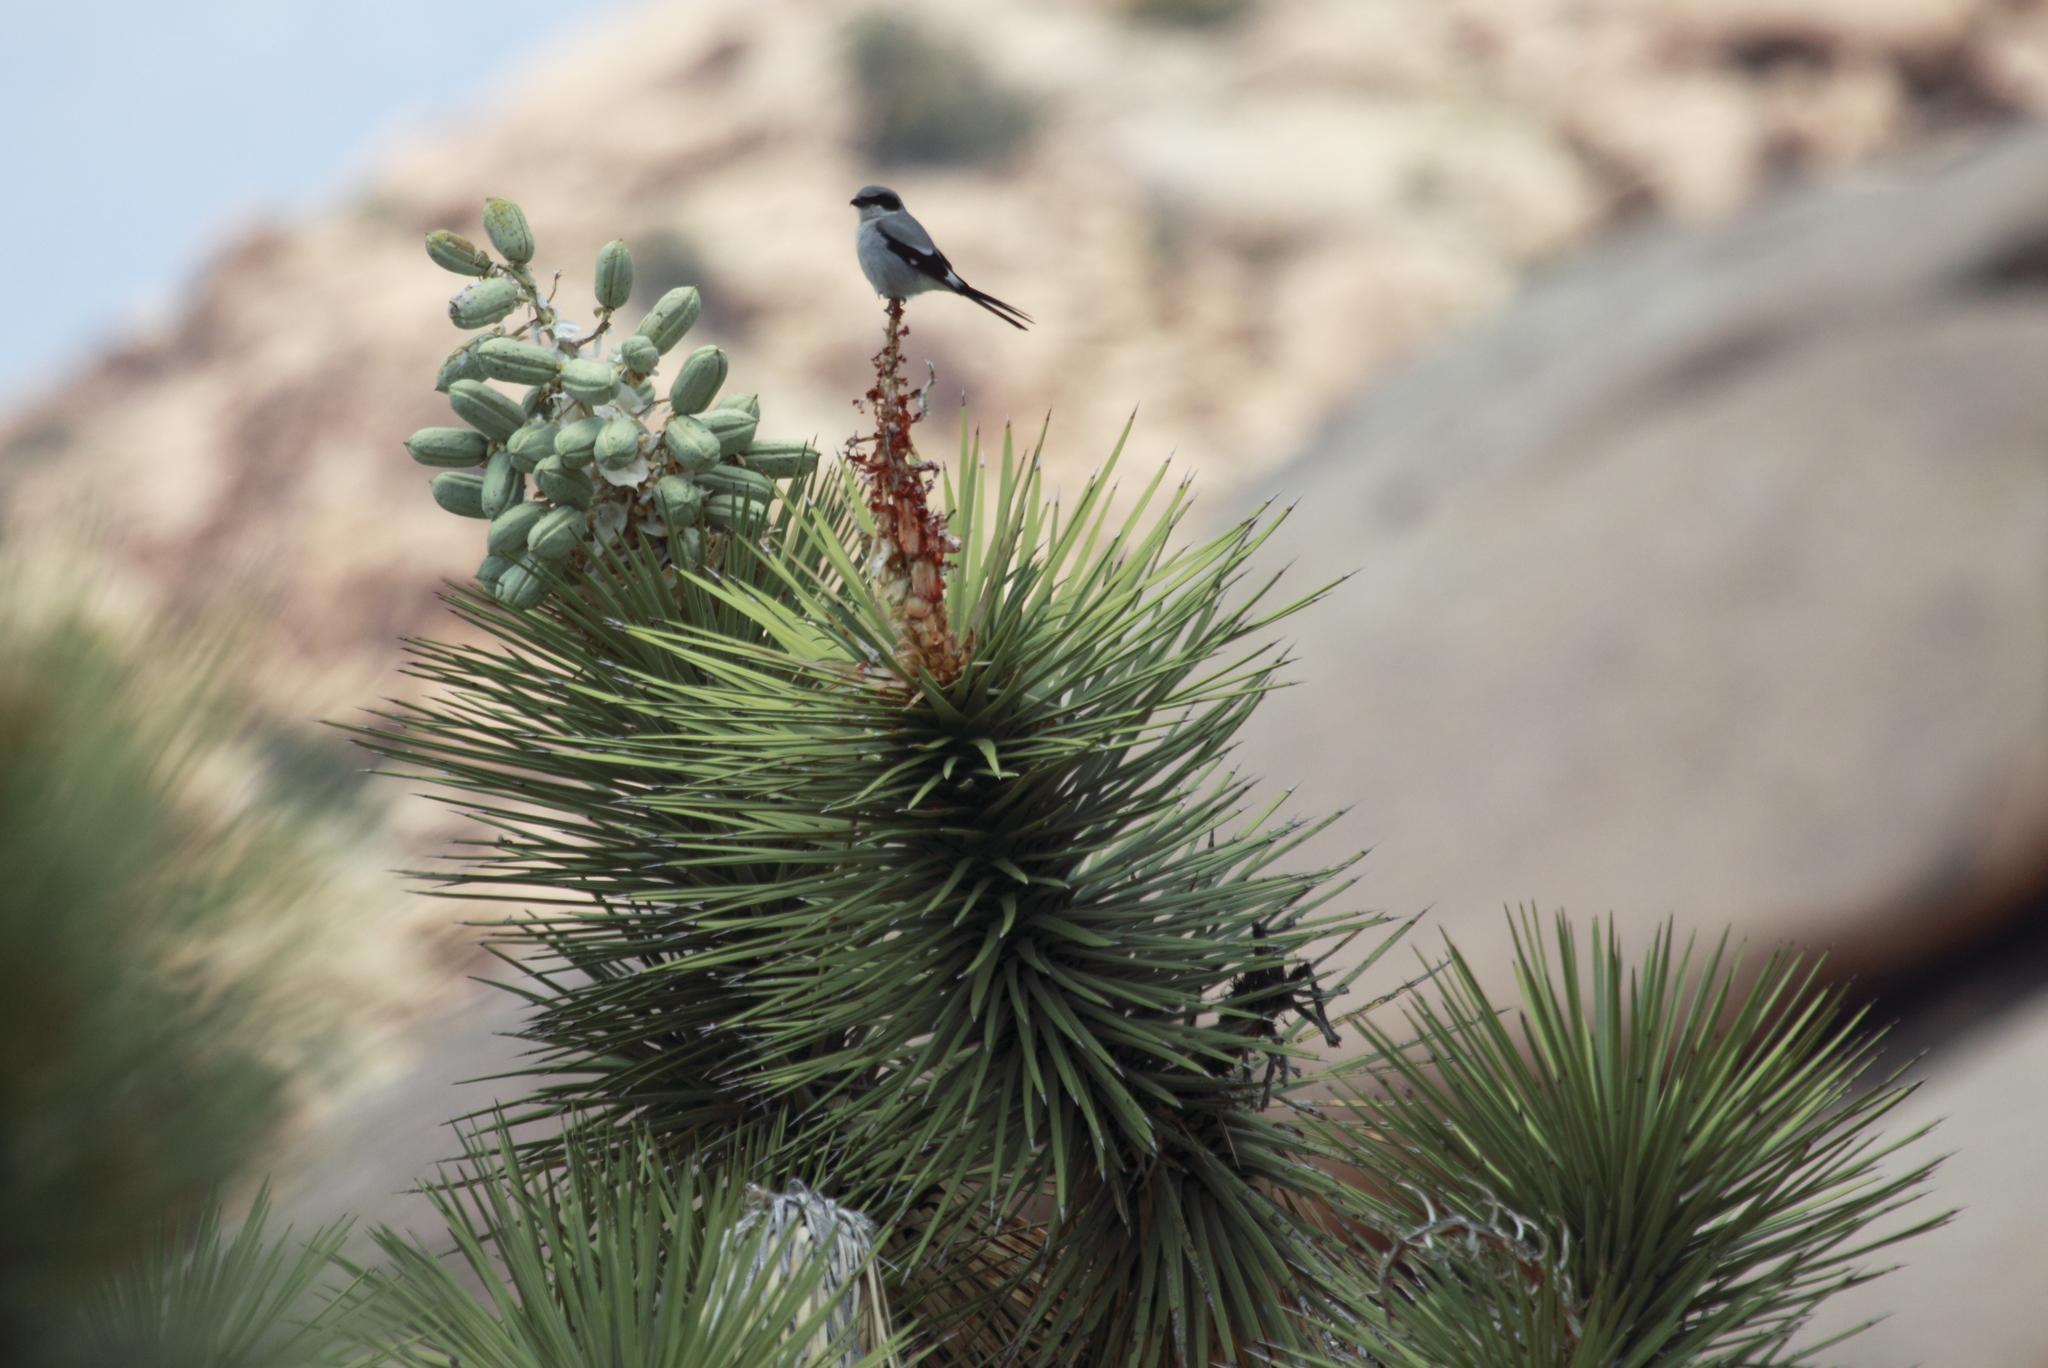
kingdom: Plantae
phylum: Tracheophyta
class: Liliopsida
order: Asparagales
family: Asparagaceae
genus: Yucca
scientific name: Yucca brevifolia
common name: Joshua tree
